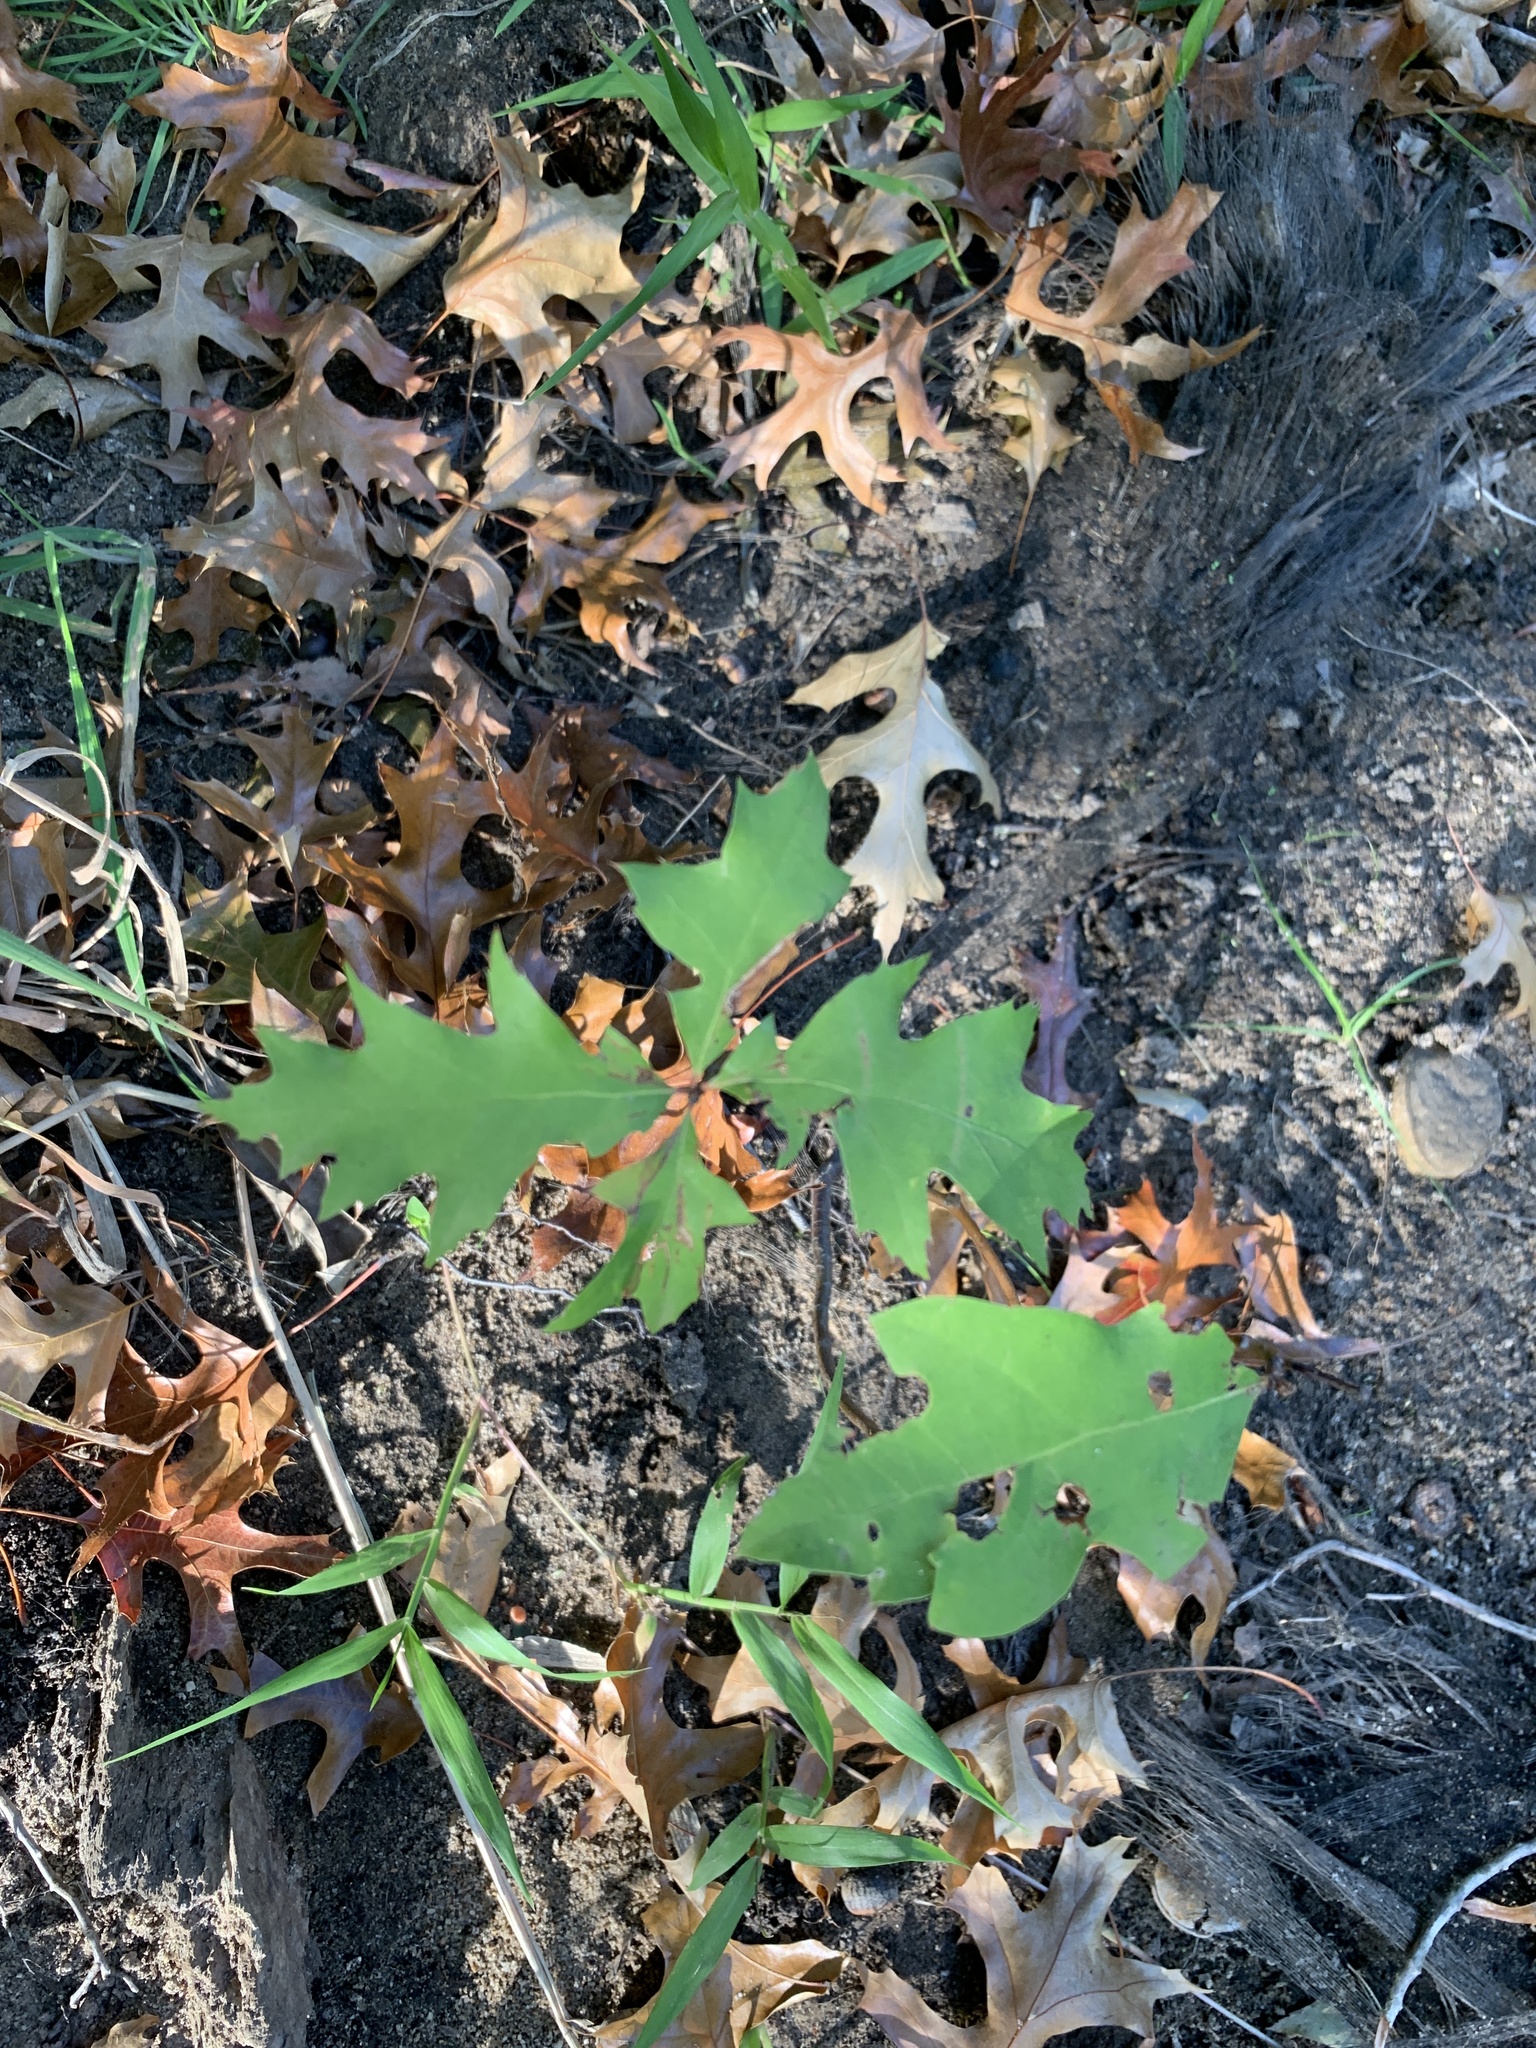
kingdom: Plantae
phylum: Tracheophyta
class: Magnoliopsida
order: Fagales
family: Fagaceae
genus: Quercus
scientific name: Quercus palustris
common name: Pin oak
